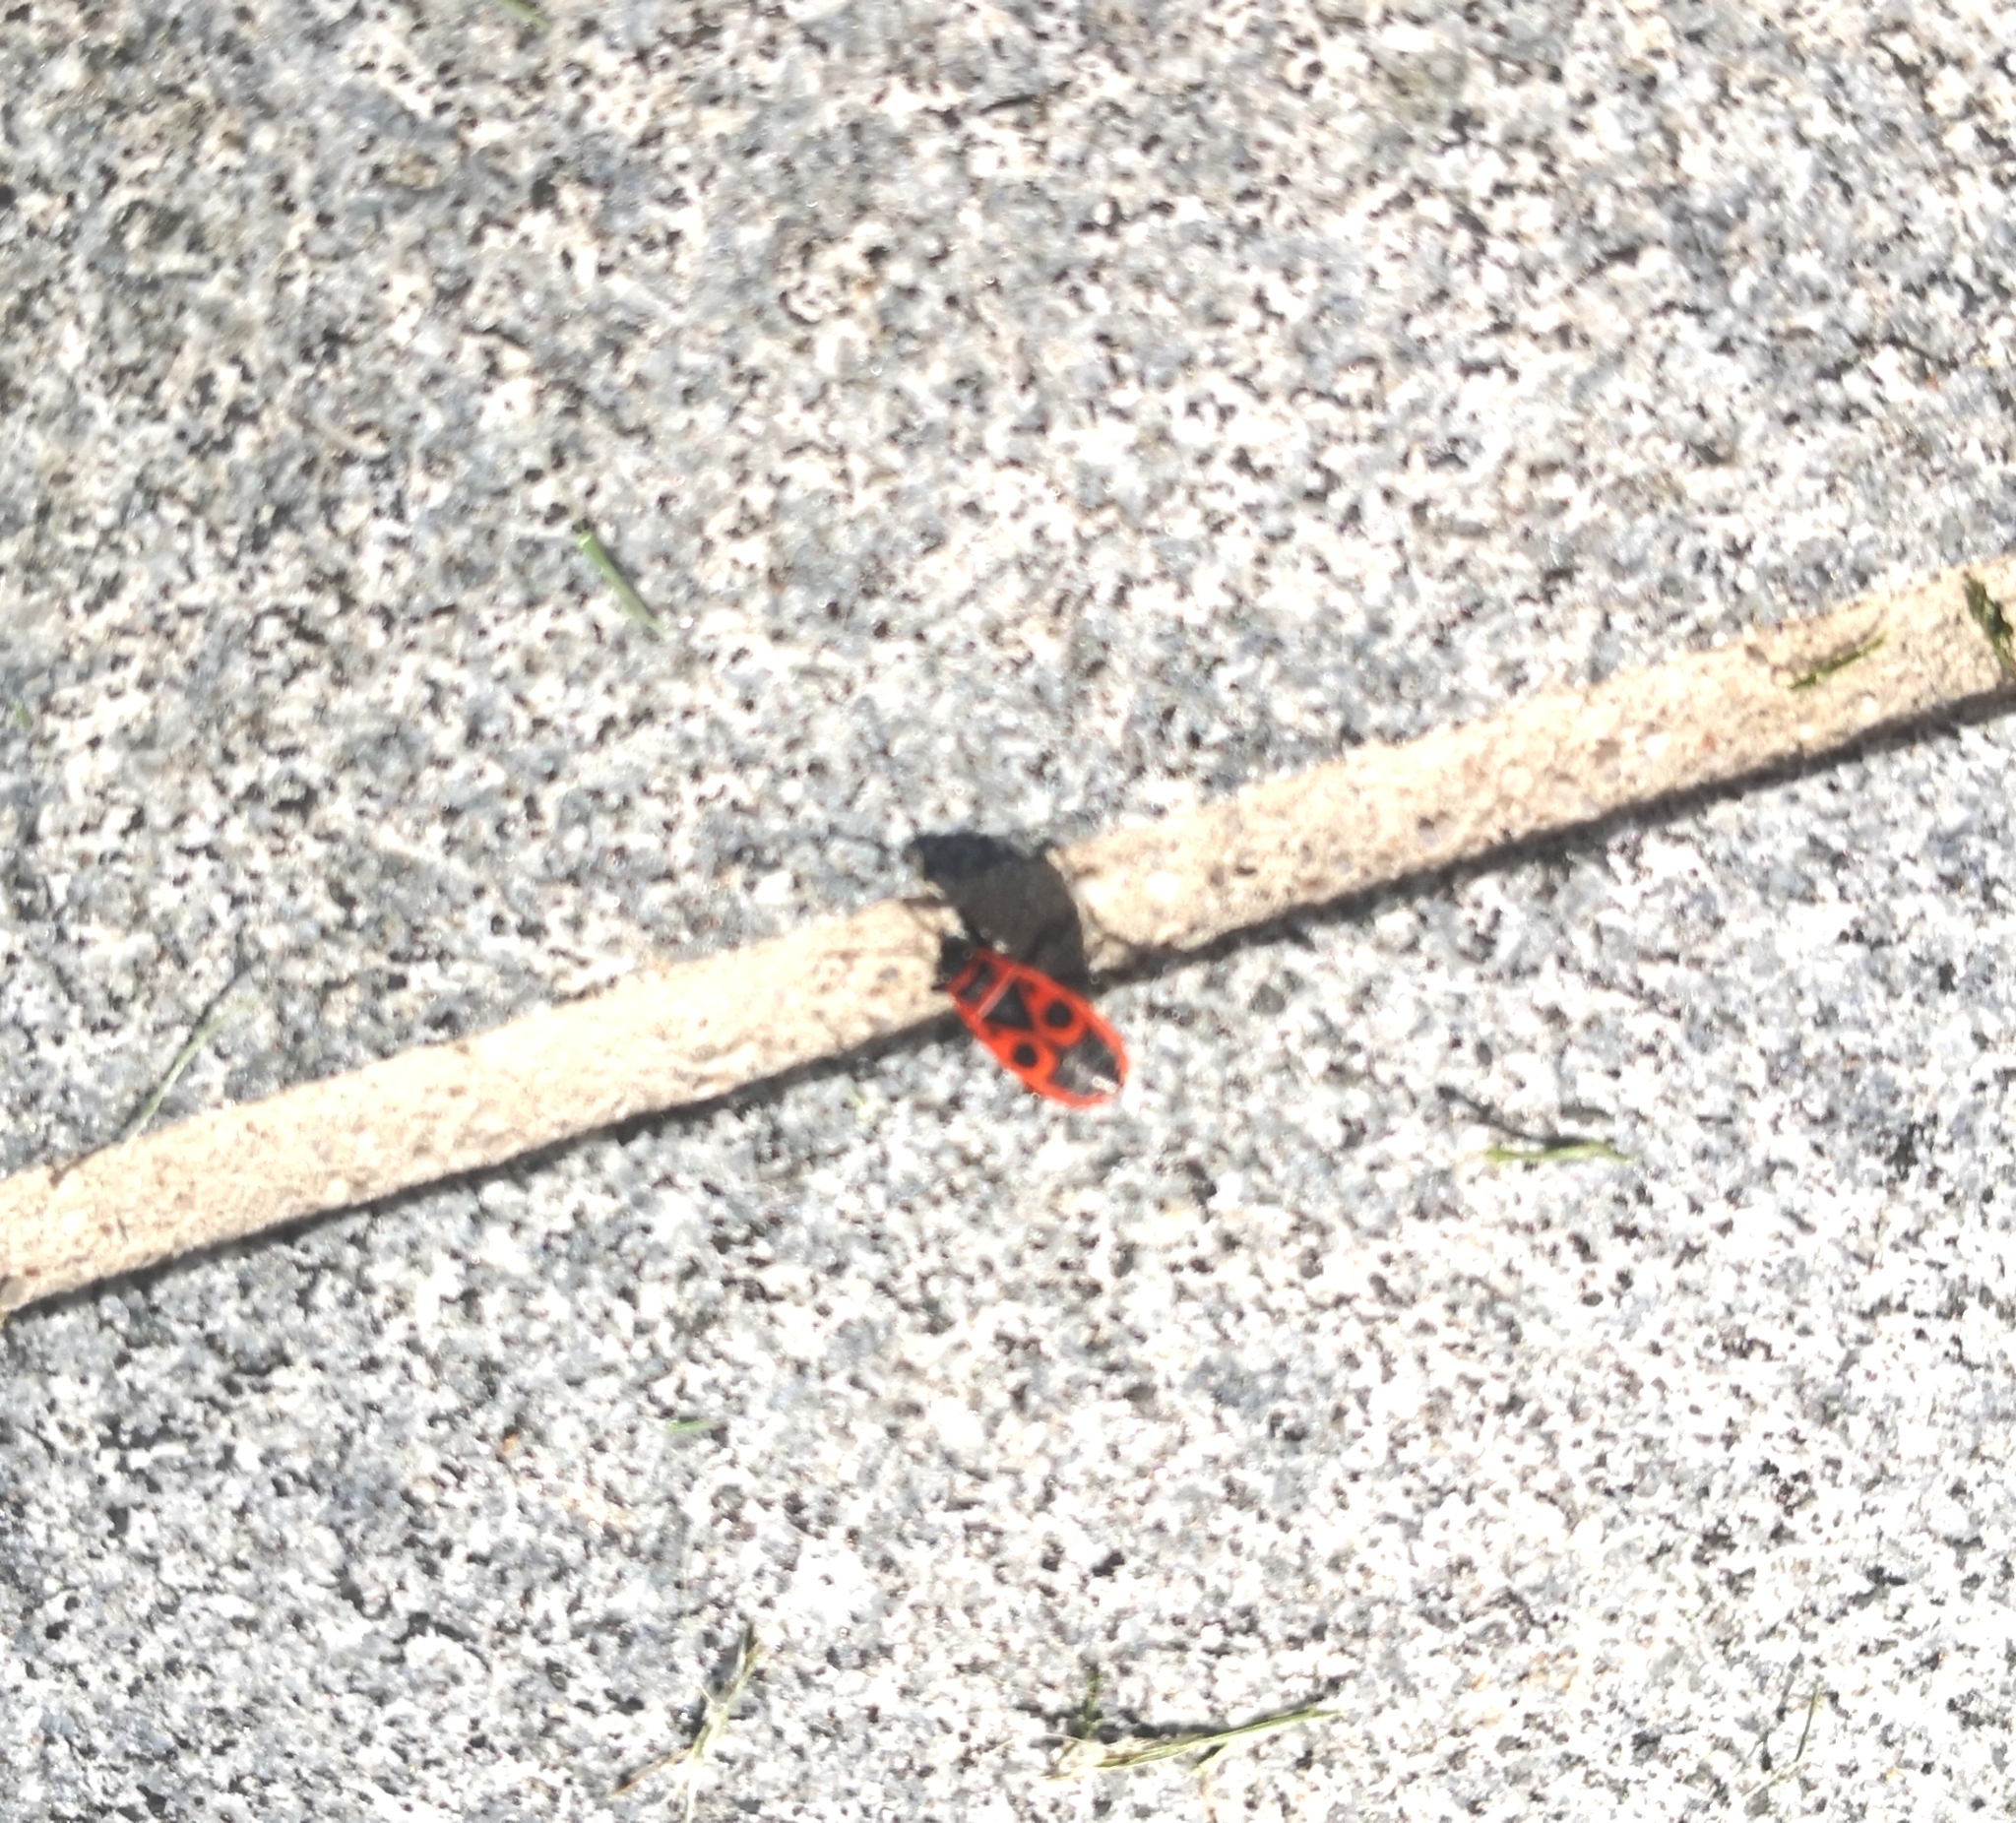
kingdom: Animalia
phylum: Arthropoda
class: Insecta
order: Hemiptera
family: Pyrrhocoridae
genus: Pyrrhocoris
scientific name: Pyrrhocoris apterus
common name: Firebug
